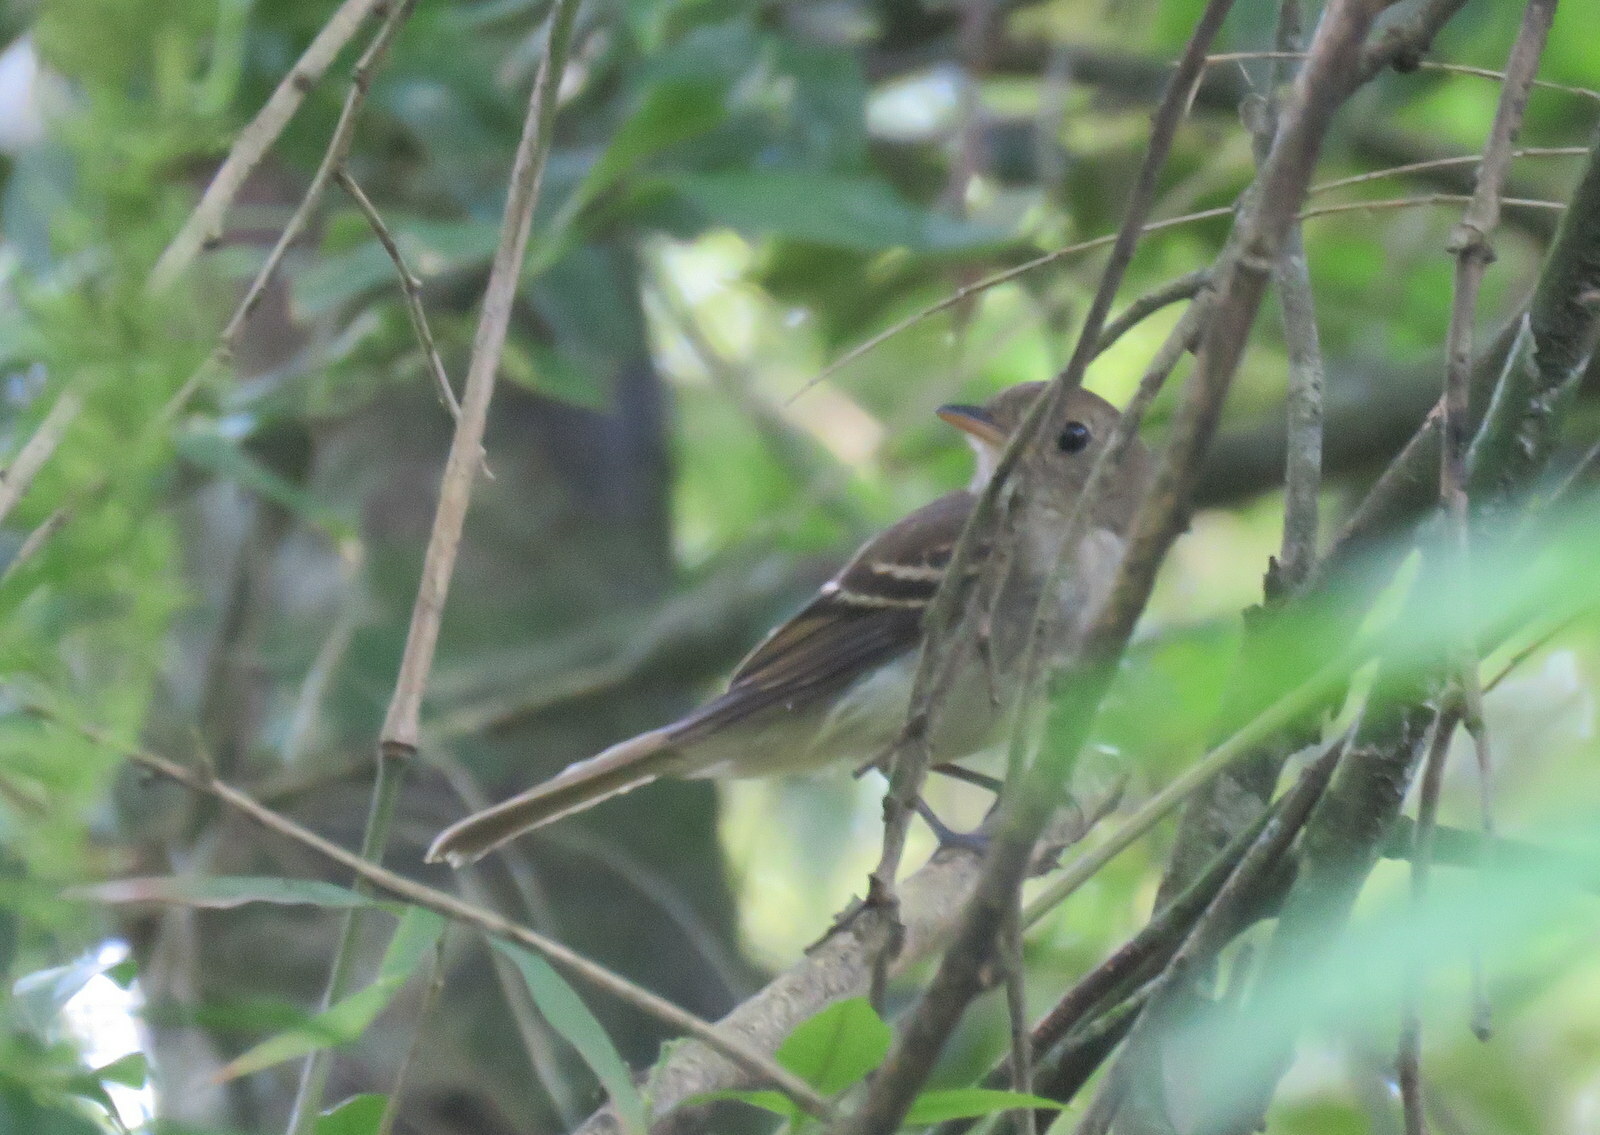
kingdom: Animalia
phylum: Chordata
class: Aves
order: Passeriformes
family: Tyrannidae
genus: Lathrotriccus
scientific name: Lathrotriccus euleri
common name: Euler's flycatcher
